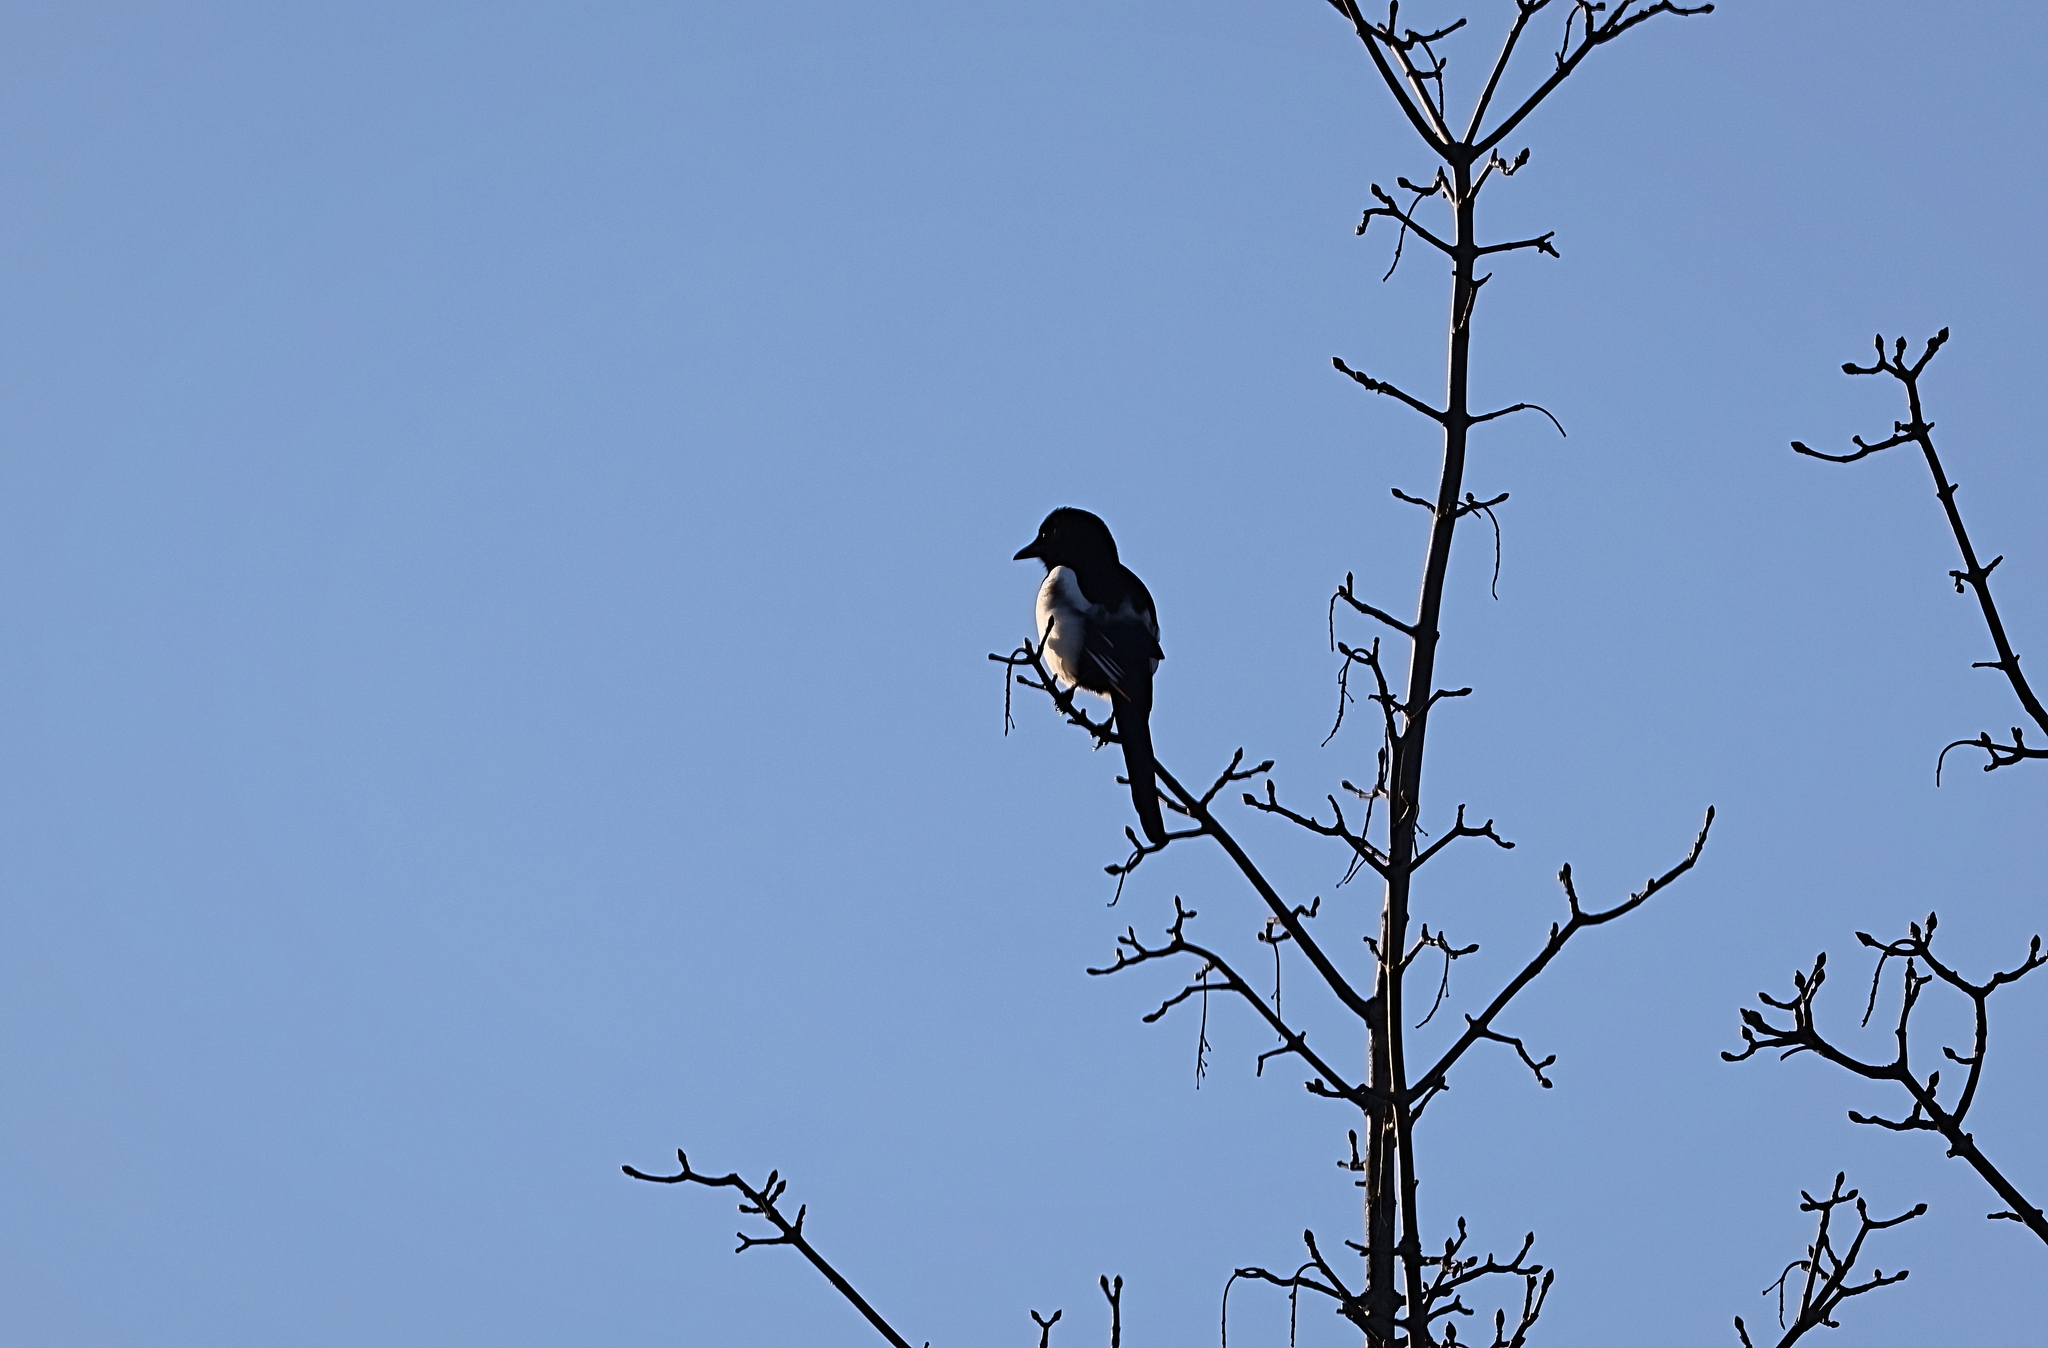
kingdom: Animalia
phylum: Chordata
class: Aves
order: Passeriformes
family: Corvidae
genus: Pica
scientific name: Pica pica
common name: Eurasian magpie
